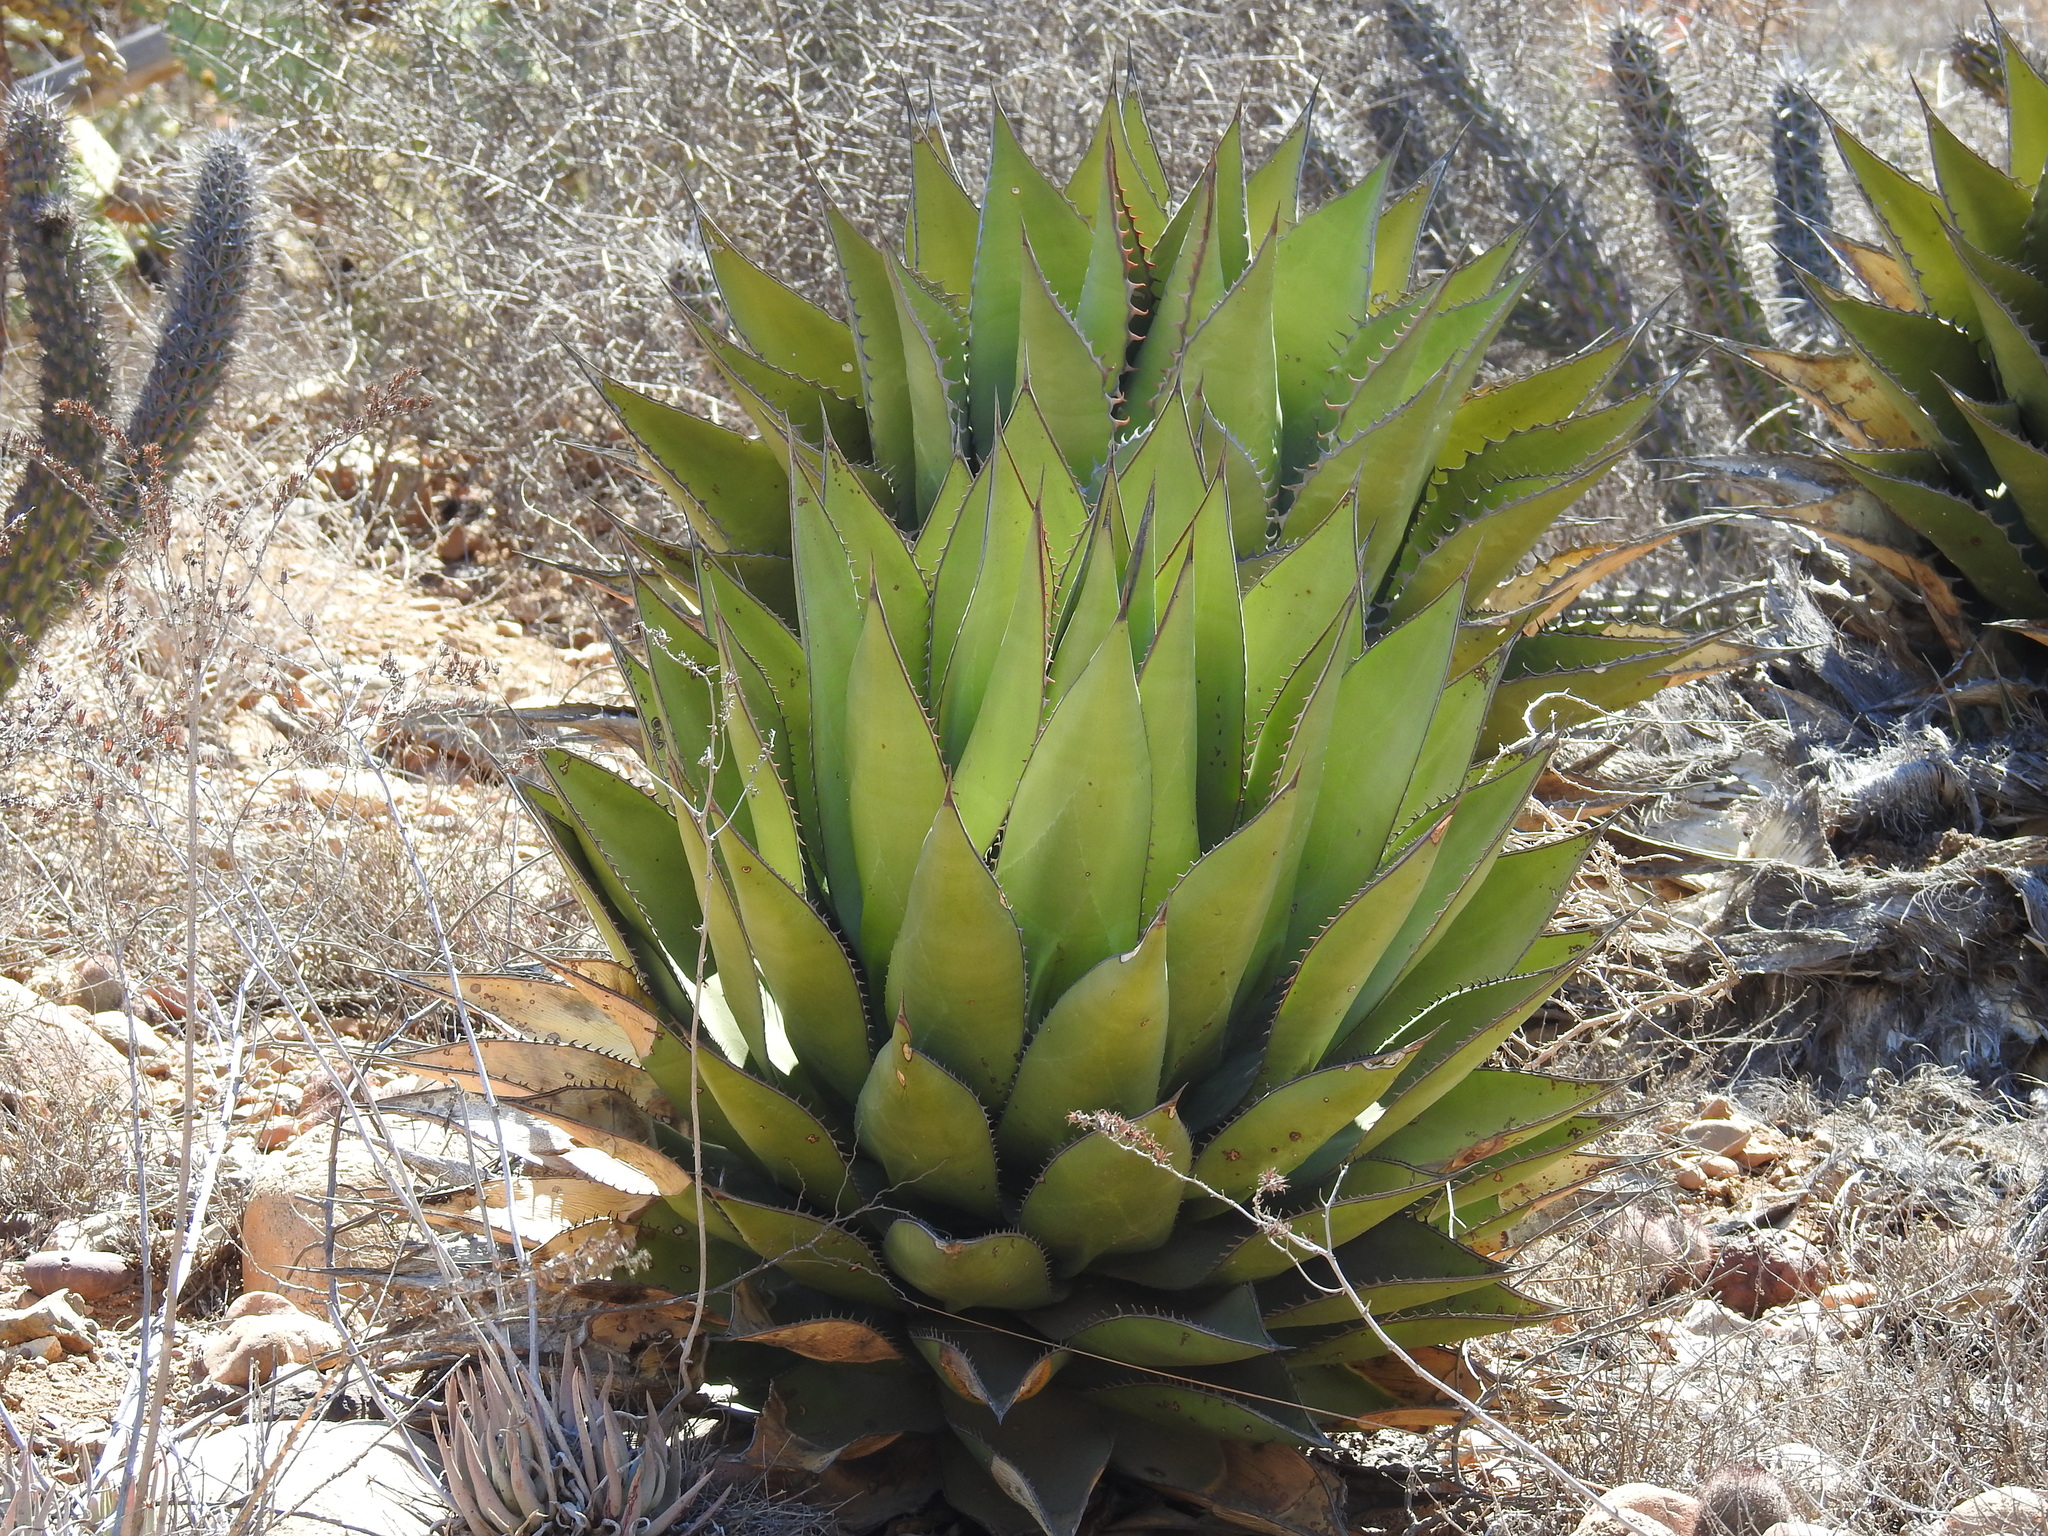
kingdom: Plantae
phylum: Tracheophyta
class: Liliopsida
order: Asparagales
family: Asparagaceae
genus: Agave
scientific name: Agave shawii
